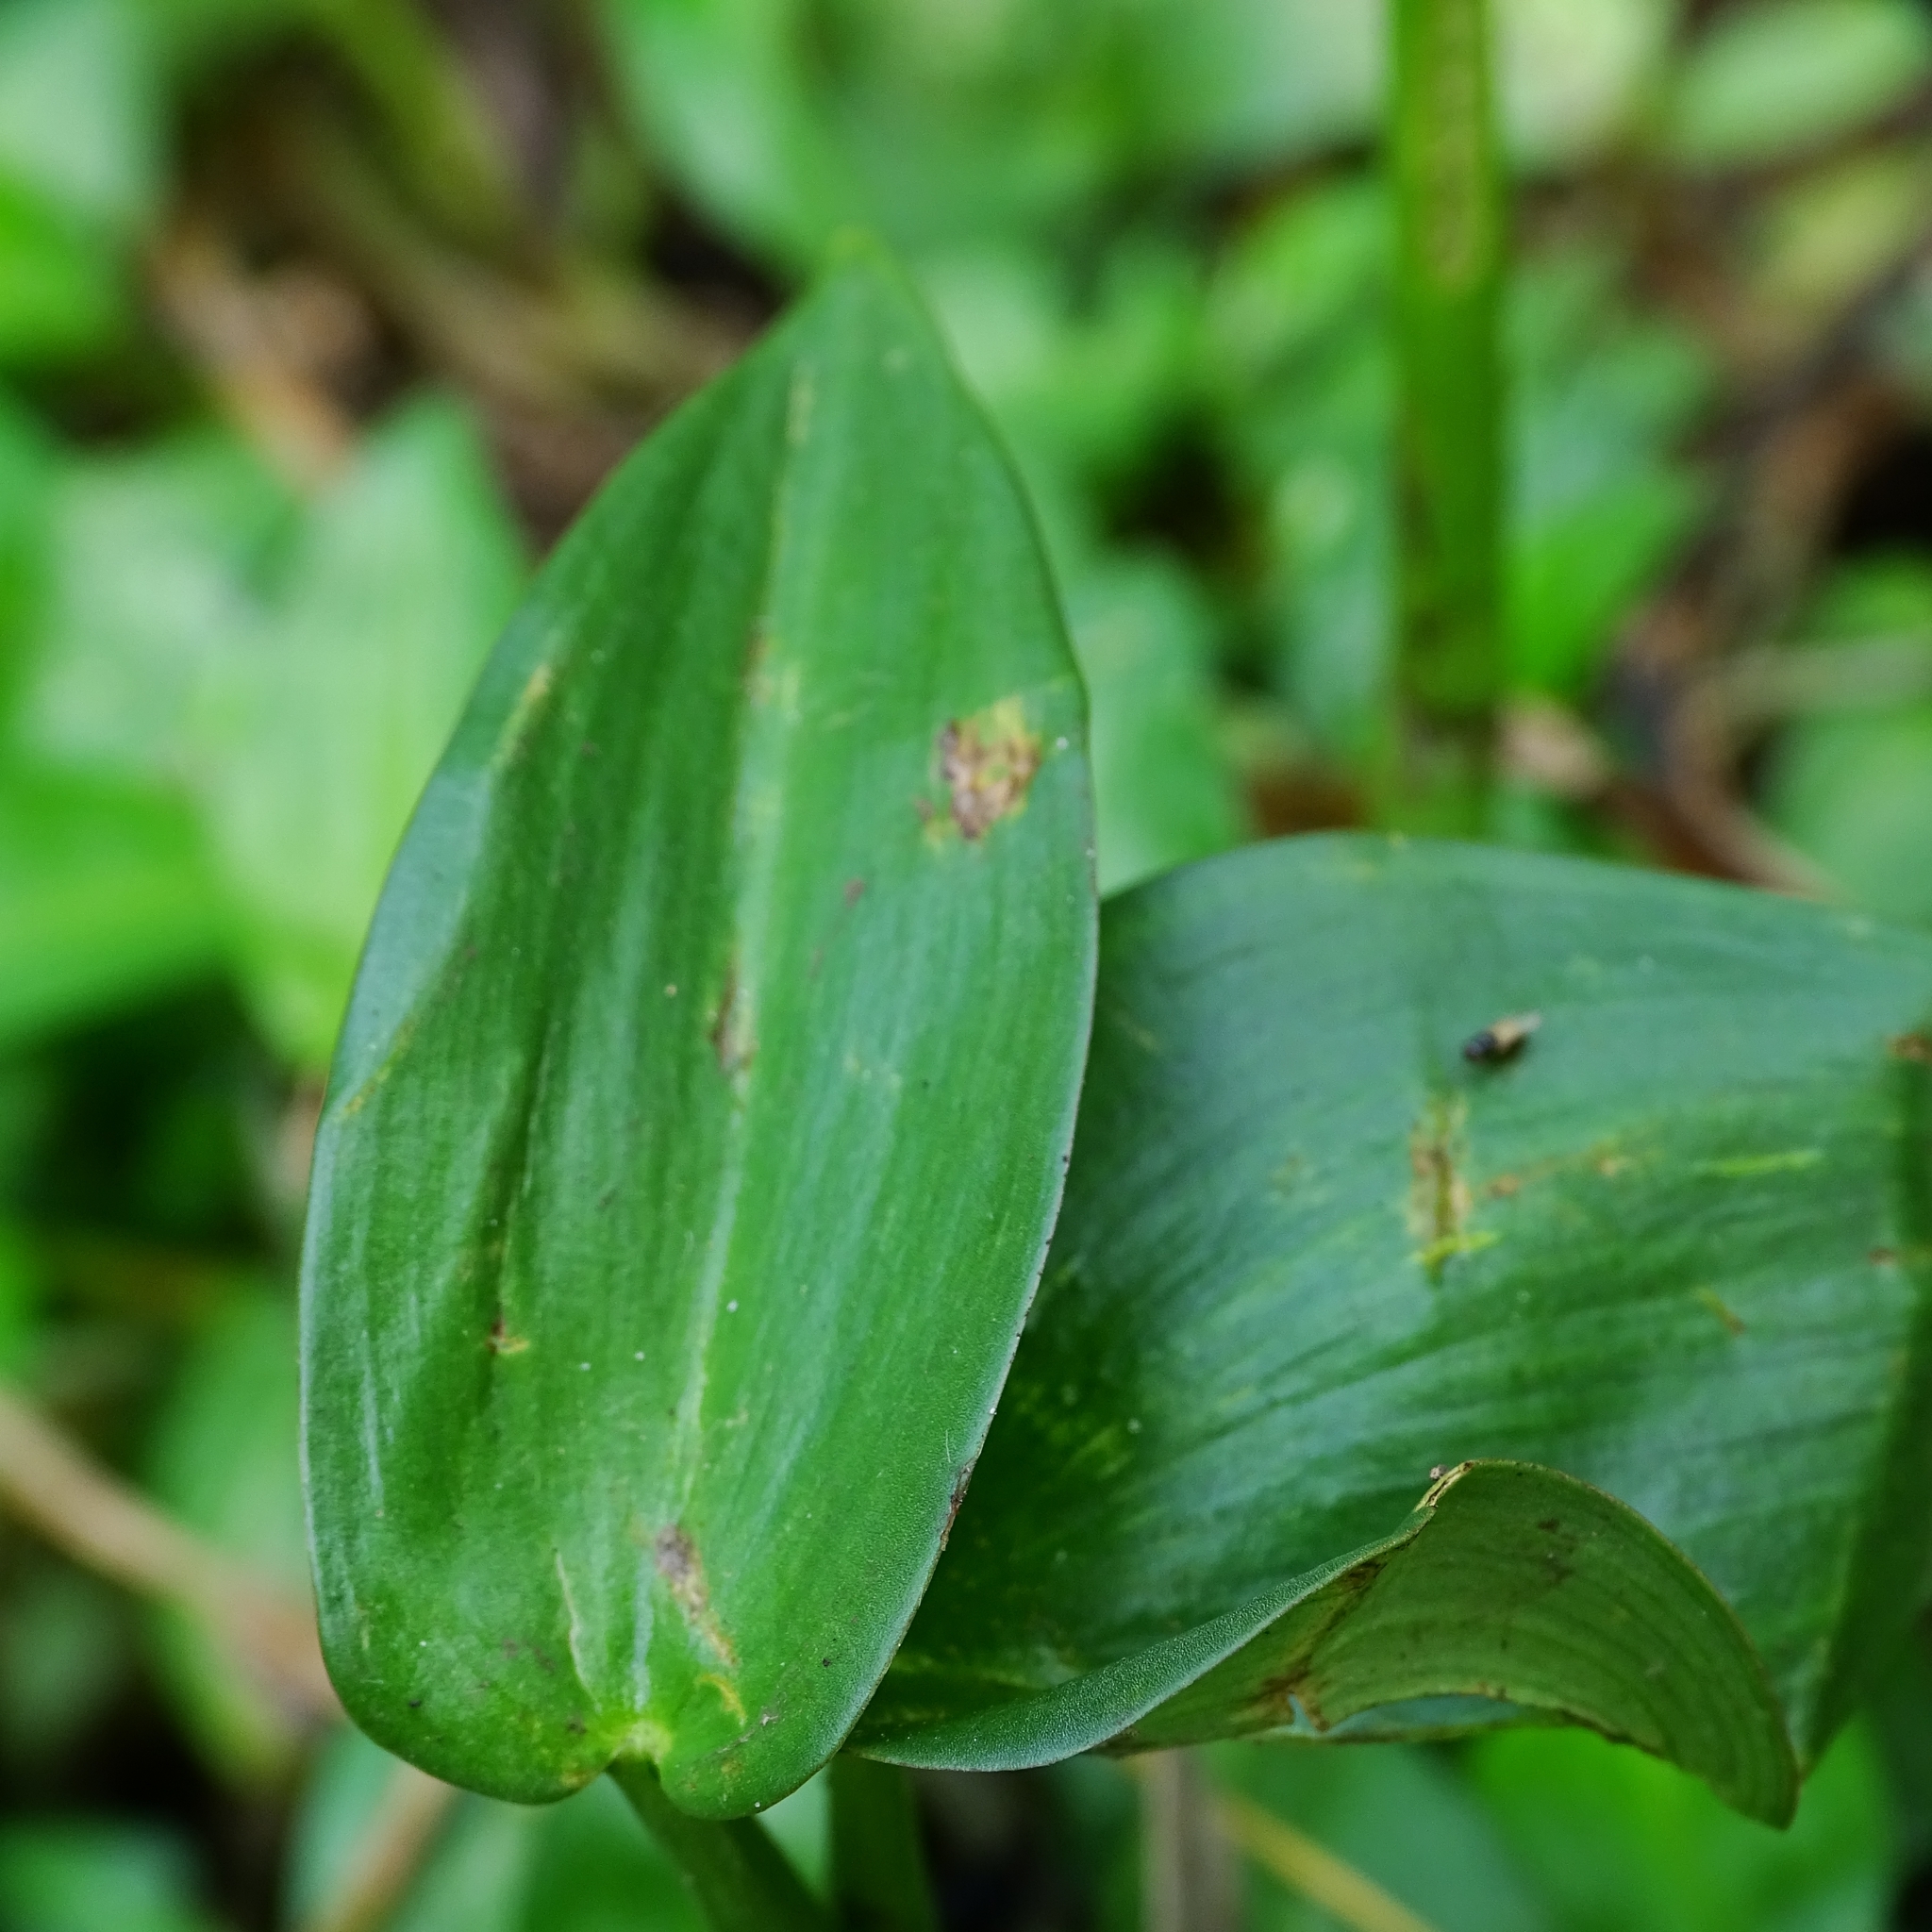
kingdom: Plantae
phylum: Tracheophyta
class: Liliopsida
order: Commelinales
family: Pontederiaceae
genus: Pontederia
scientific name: Pontederia vaginalis
